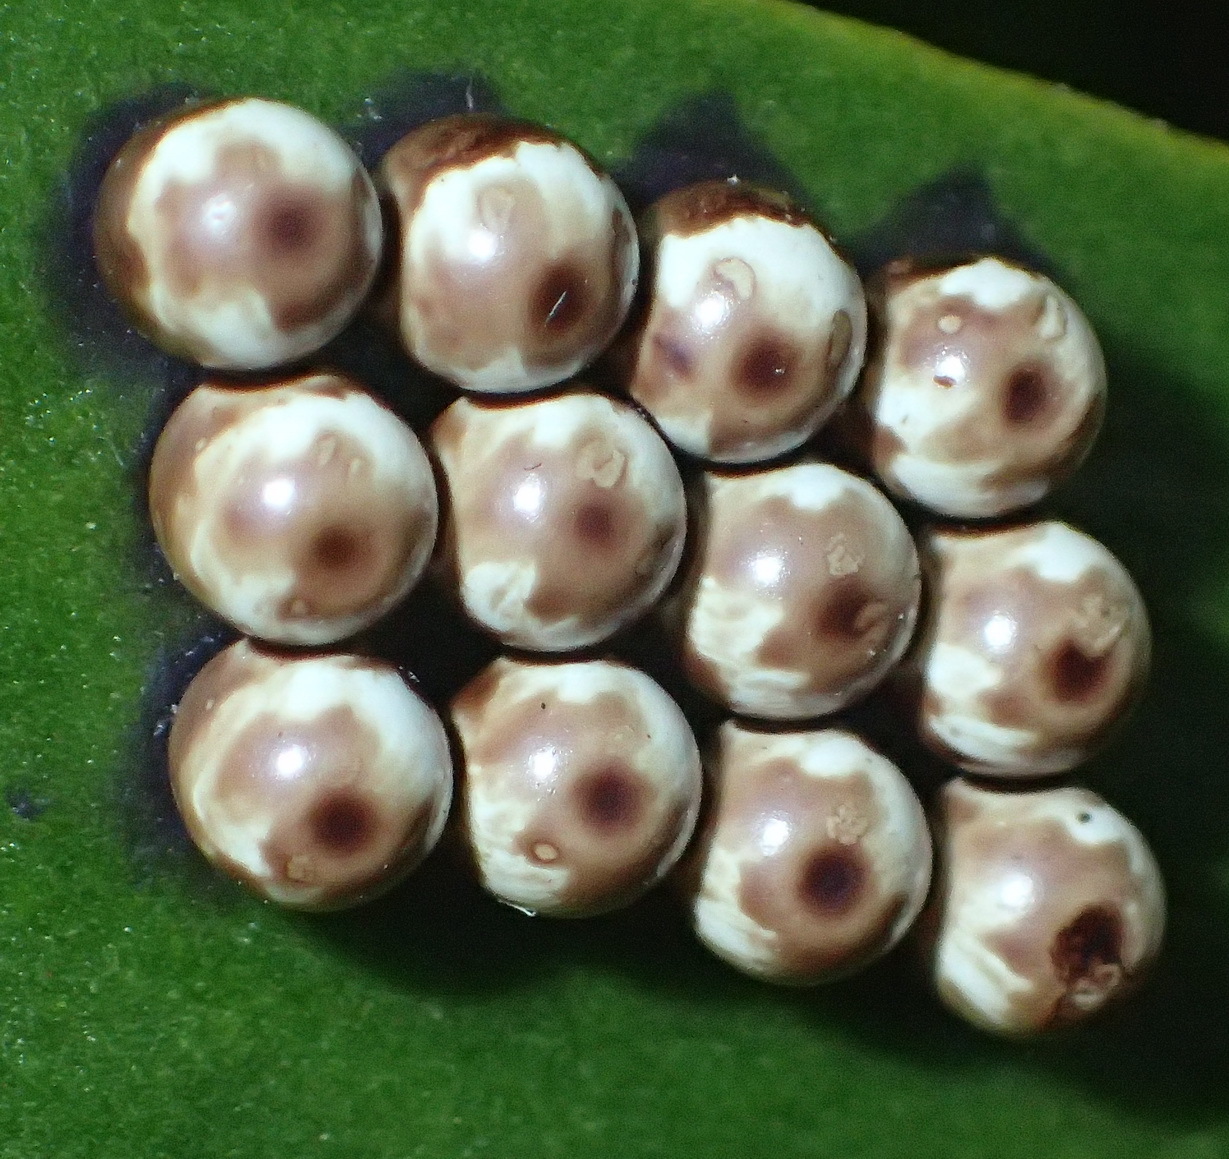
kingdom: Animalia
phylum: Arthropoda
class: Insecta
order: Lepidoptera
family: Saturniidae
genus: Nudaurelia
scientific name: Nudaurelia cytherea
